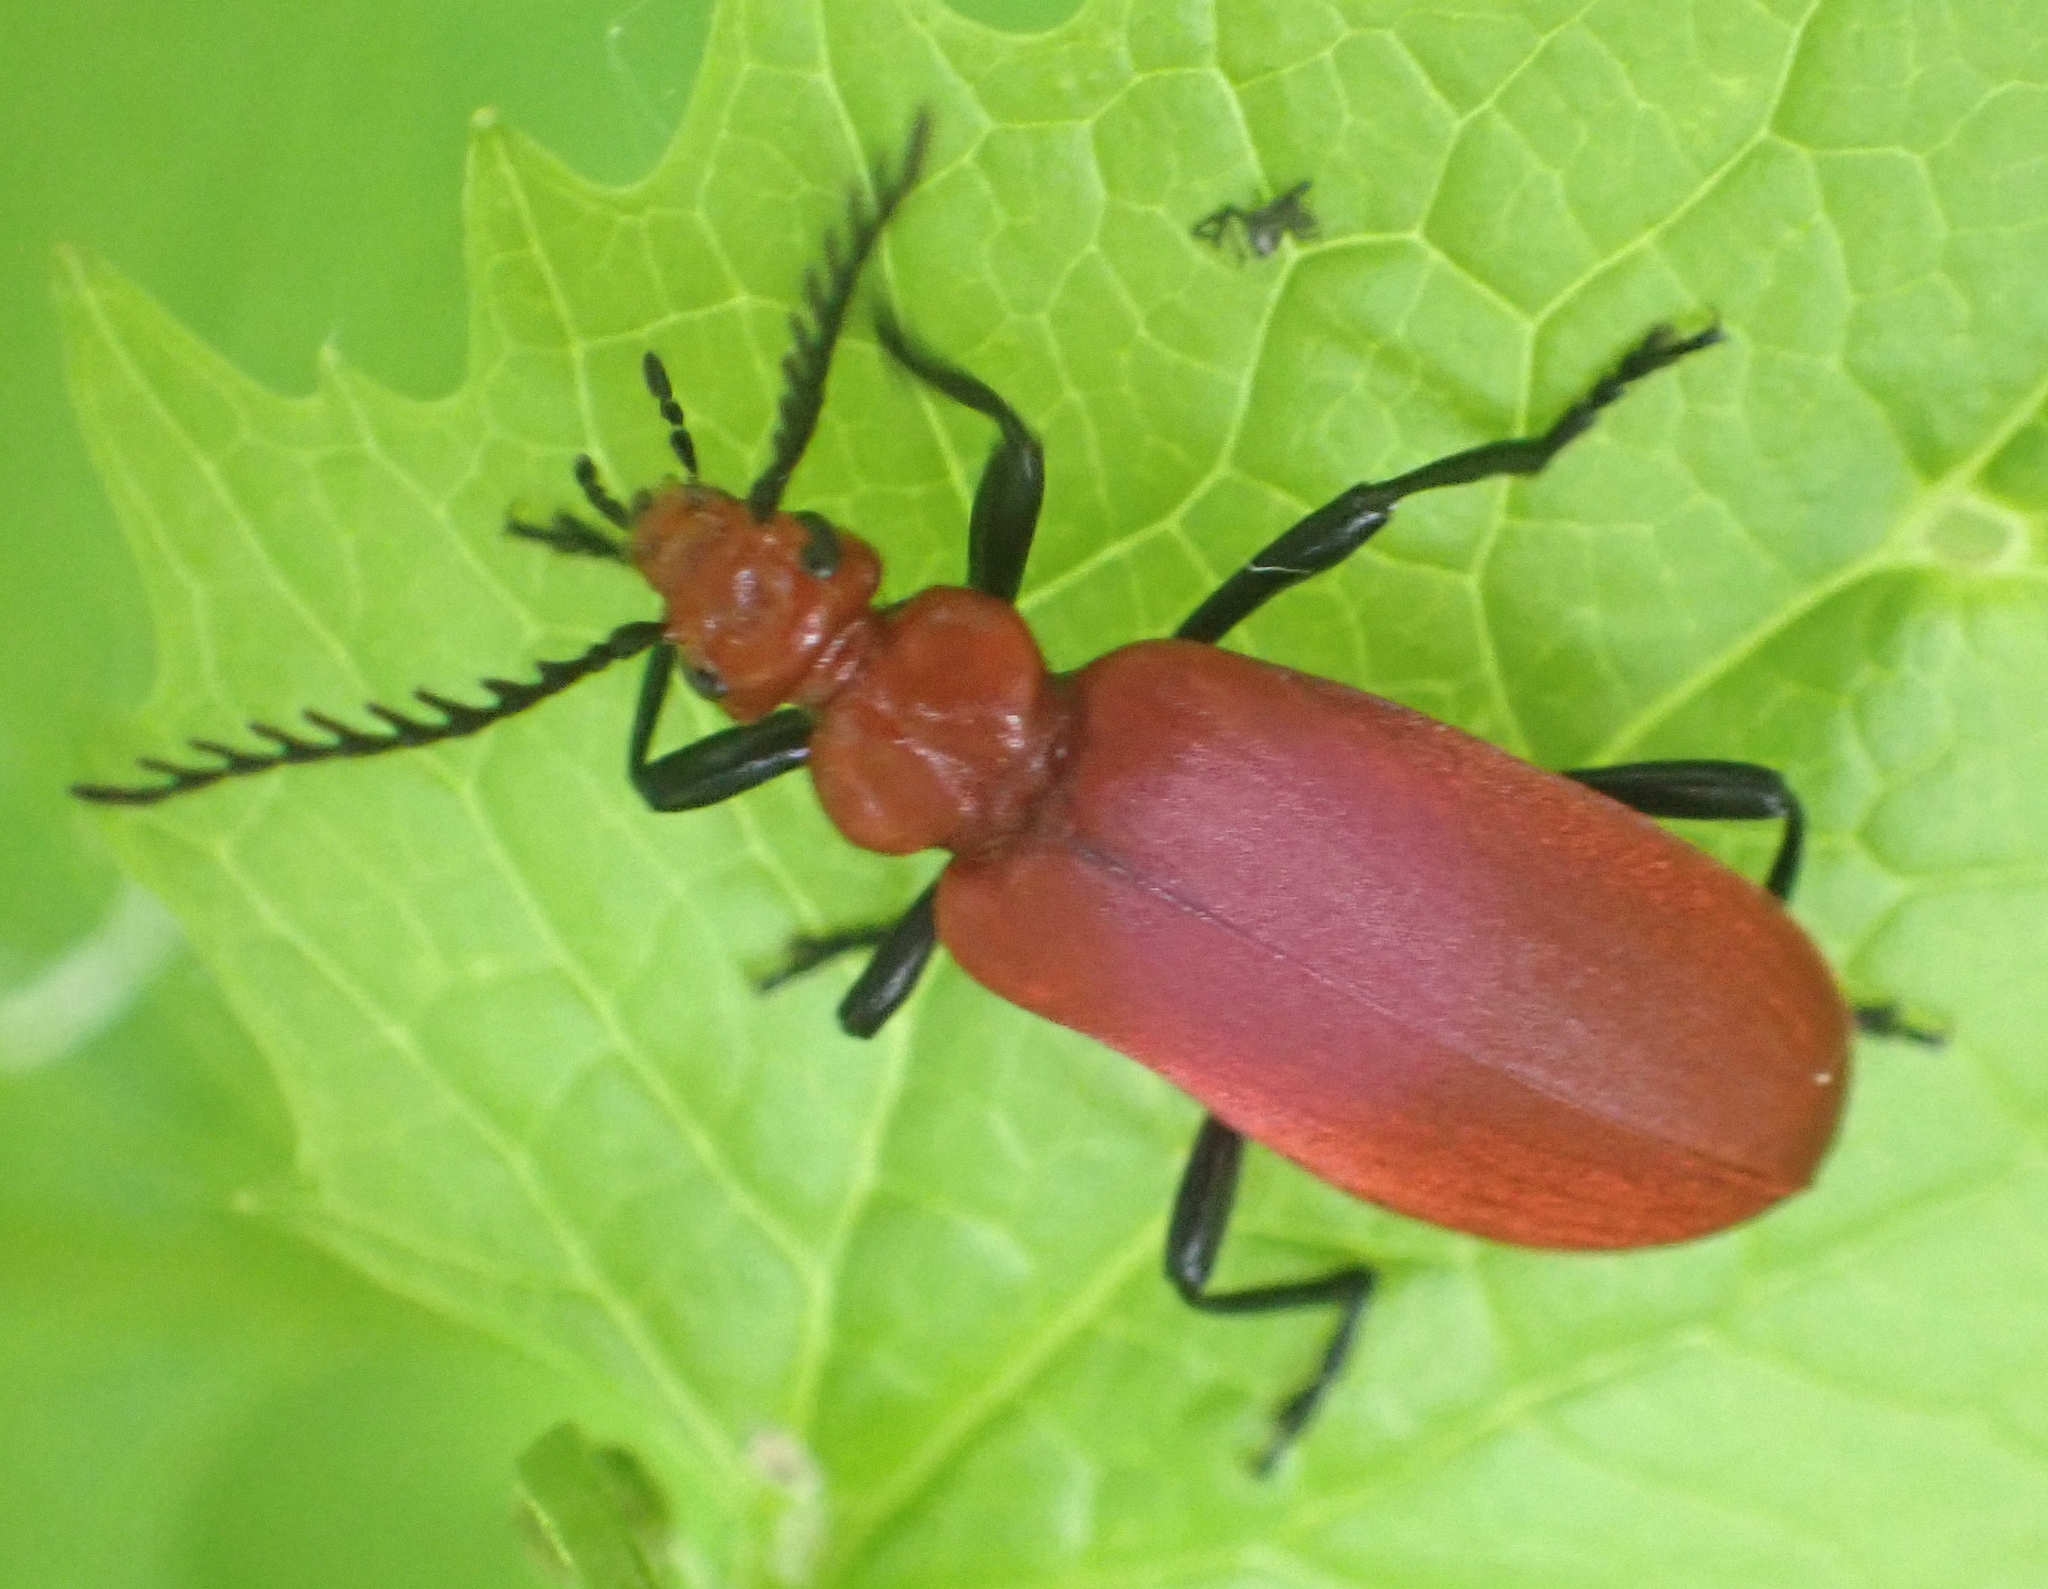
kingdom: Animalia
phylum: Arthropoda
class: Insecta
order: Coleoptera
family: Pyrochroidae
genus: Pyrochroa
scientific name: Pyrochroa serraticornis
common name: Red-headed cardinal beetle
